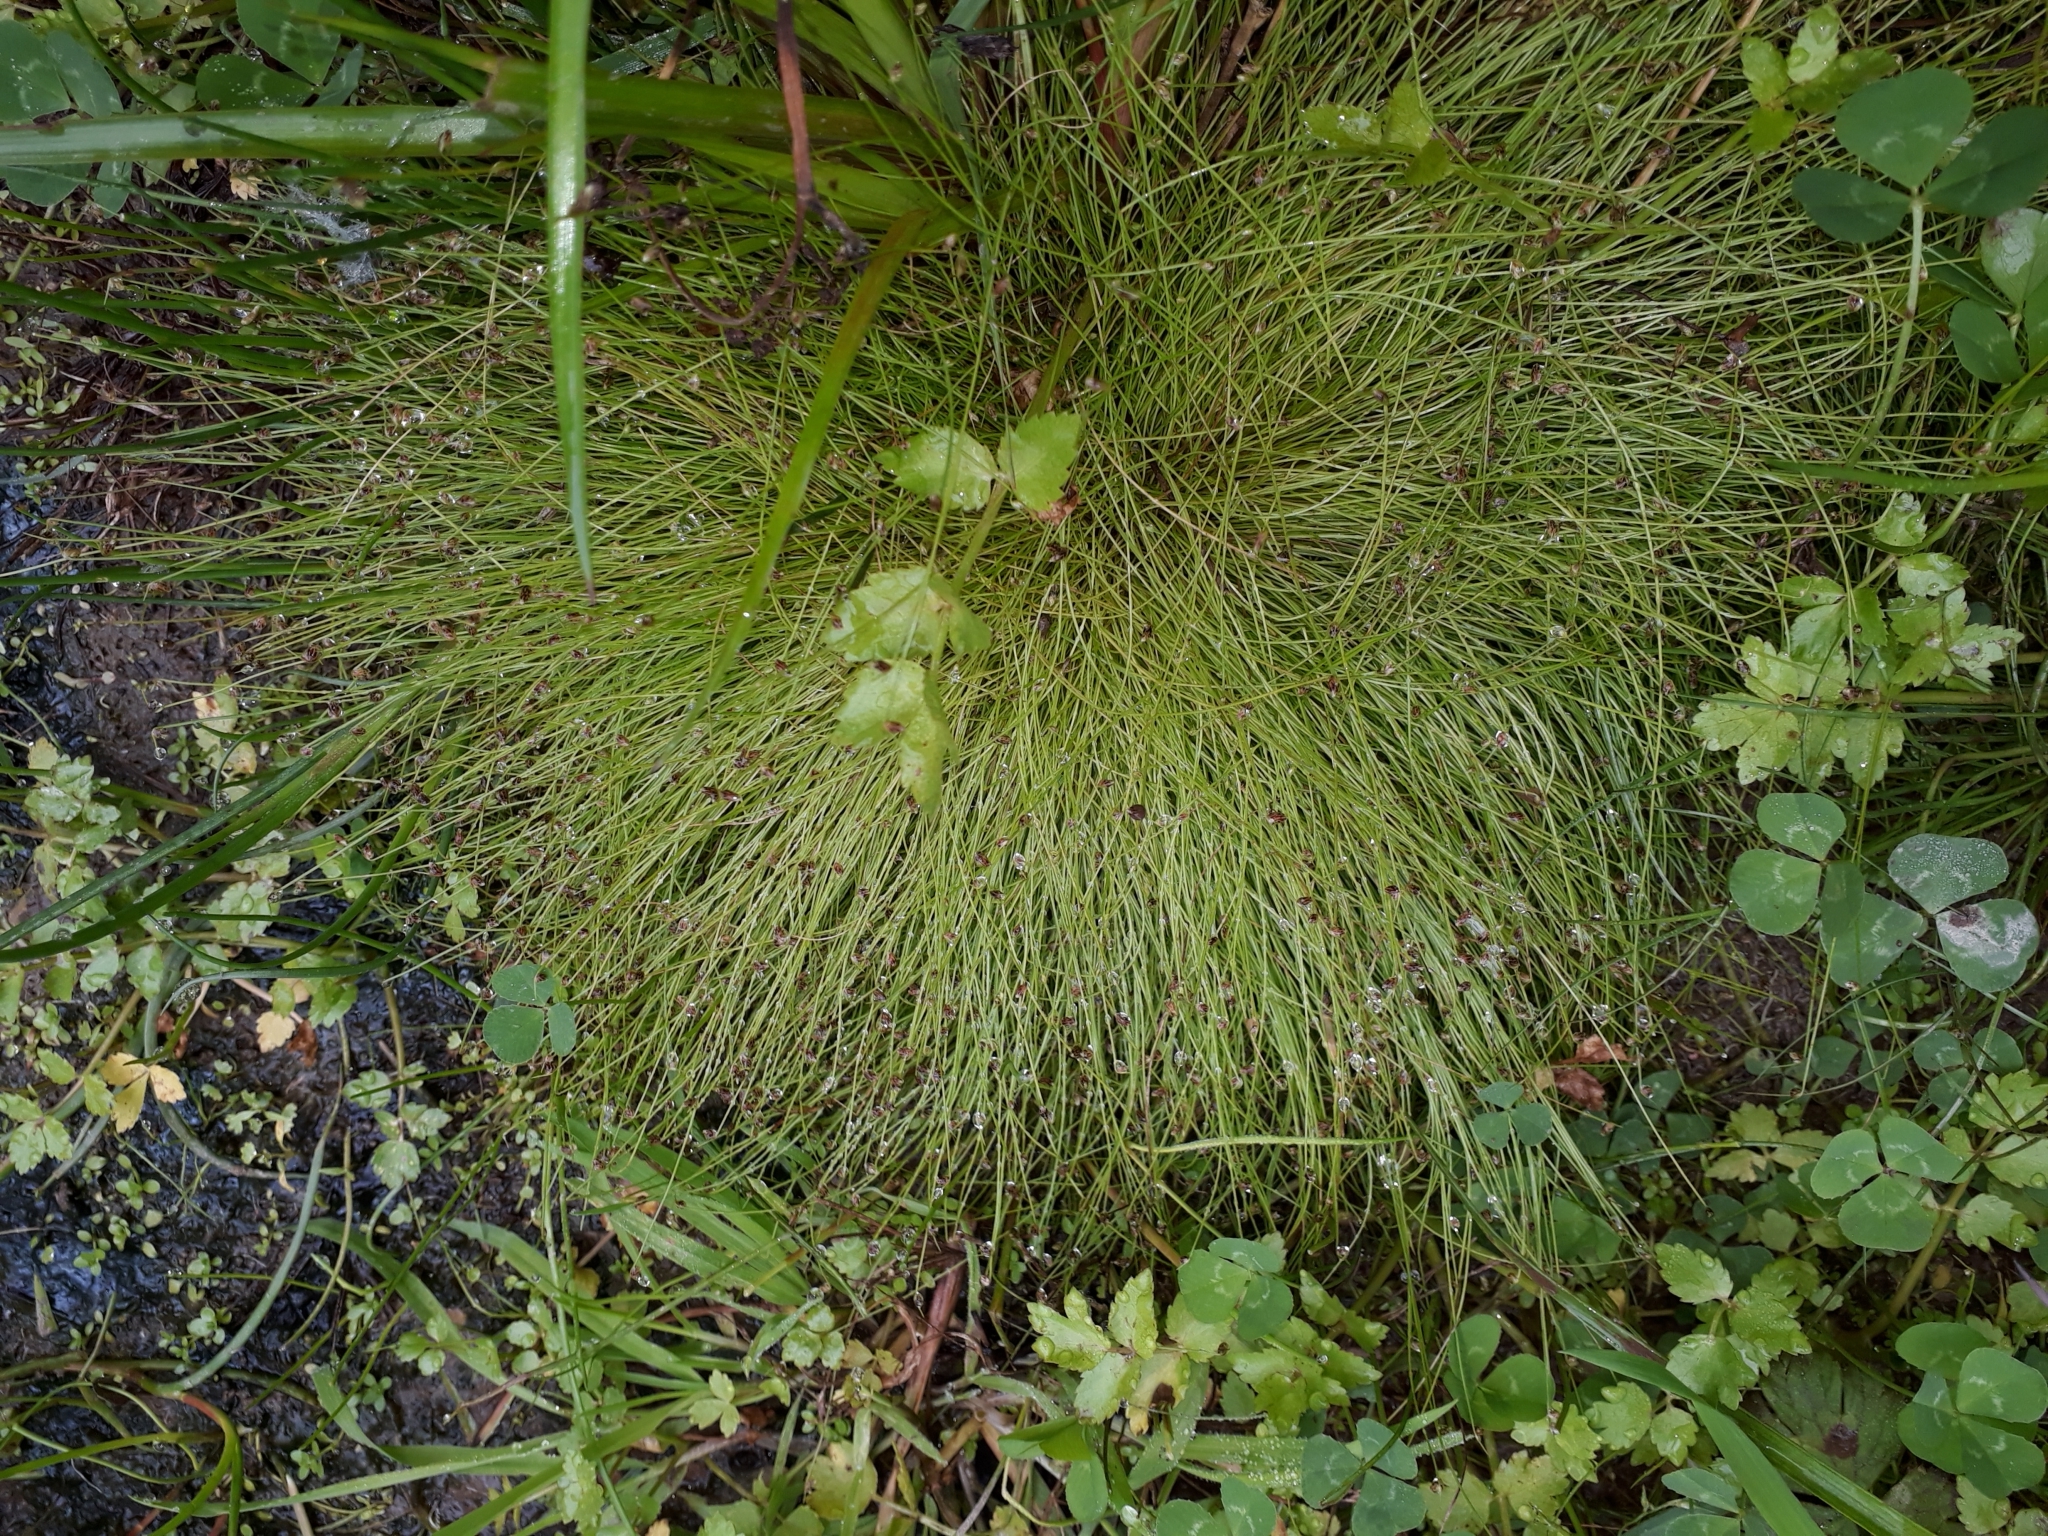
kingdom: Plantae
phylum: Tracheophyta
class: Liliopsida
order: Poales
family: Cyperaceae
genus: Isolepis
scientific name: Isolepis sepulcralis
